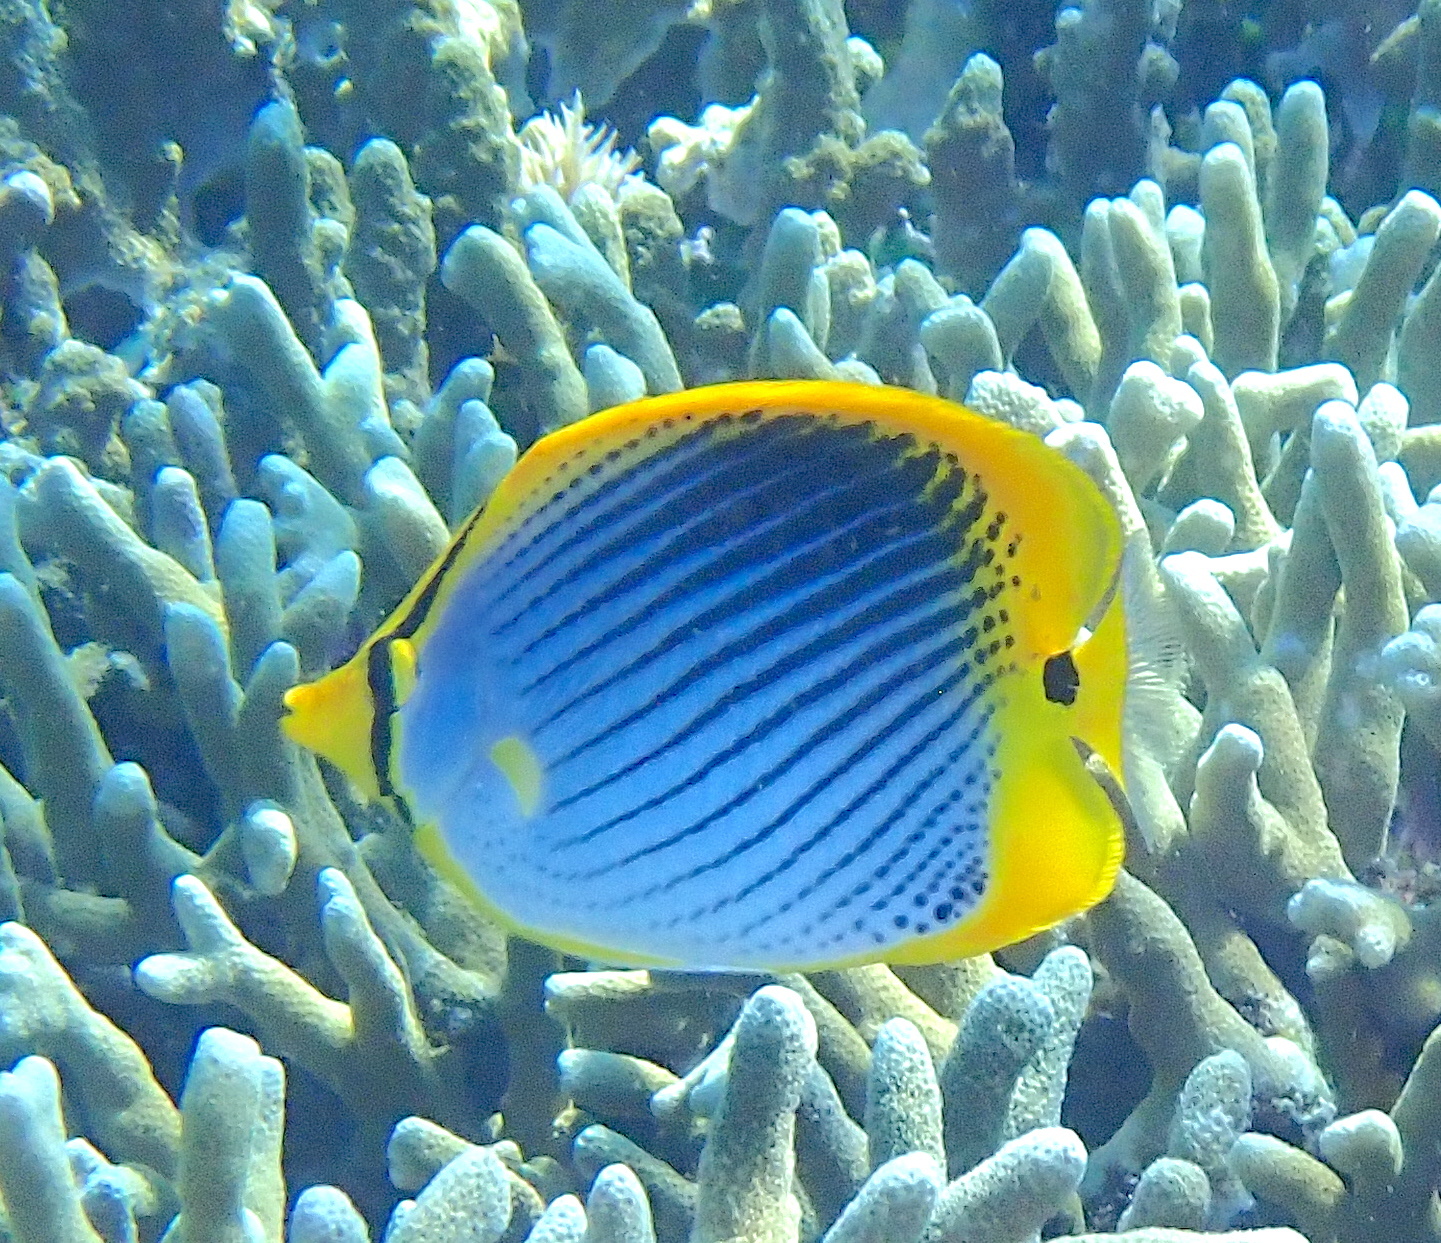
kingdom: Animalia
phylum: Chordata
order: Perciformes
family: Chaetodontidae
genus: Chaetodon
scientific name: Chaetodon ocellicaudus
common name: Spot-tail butterflyfish
